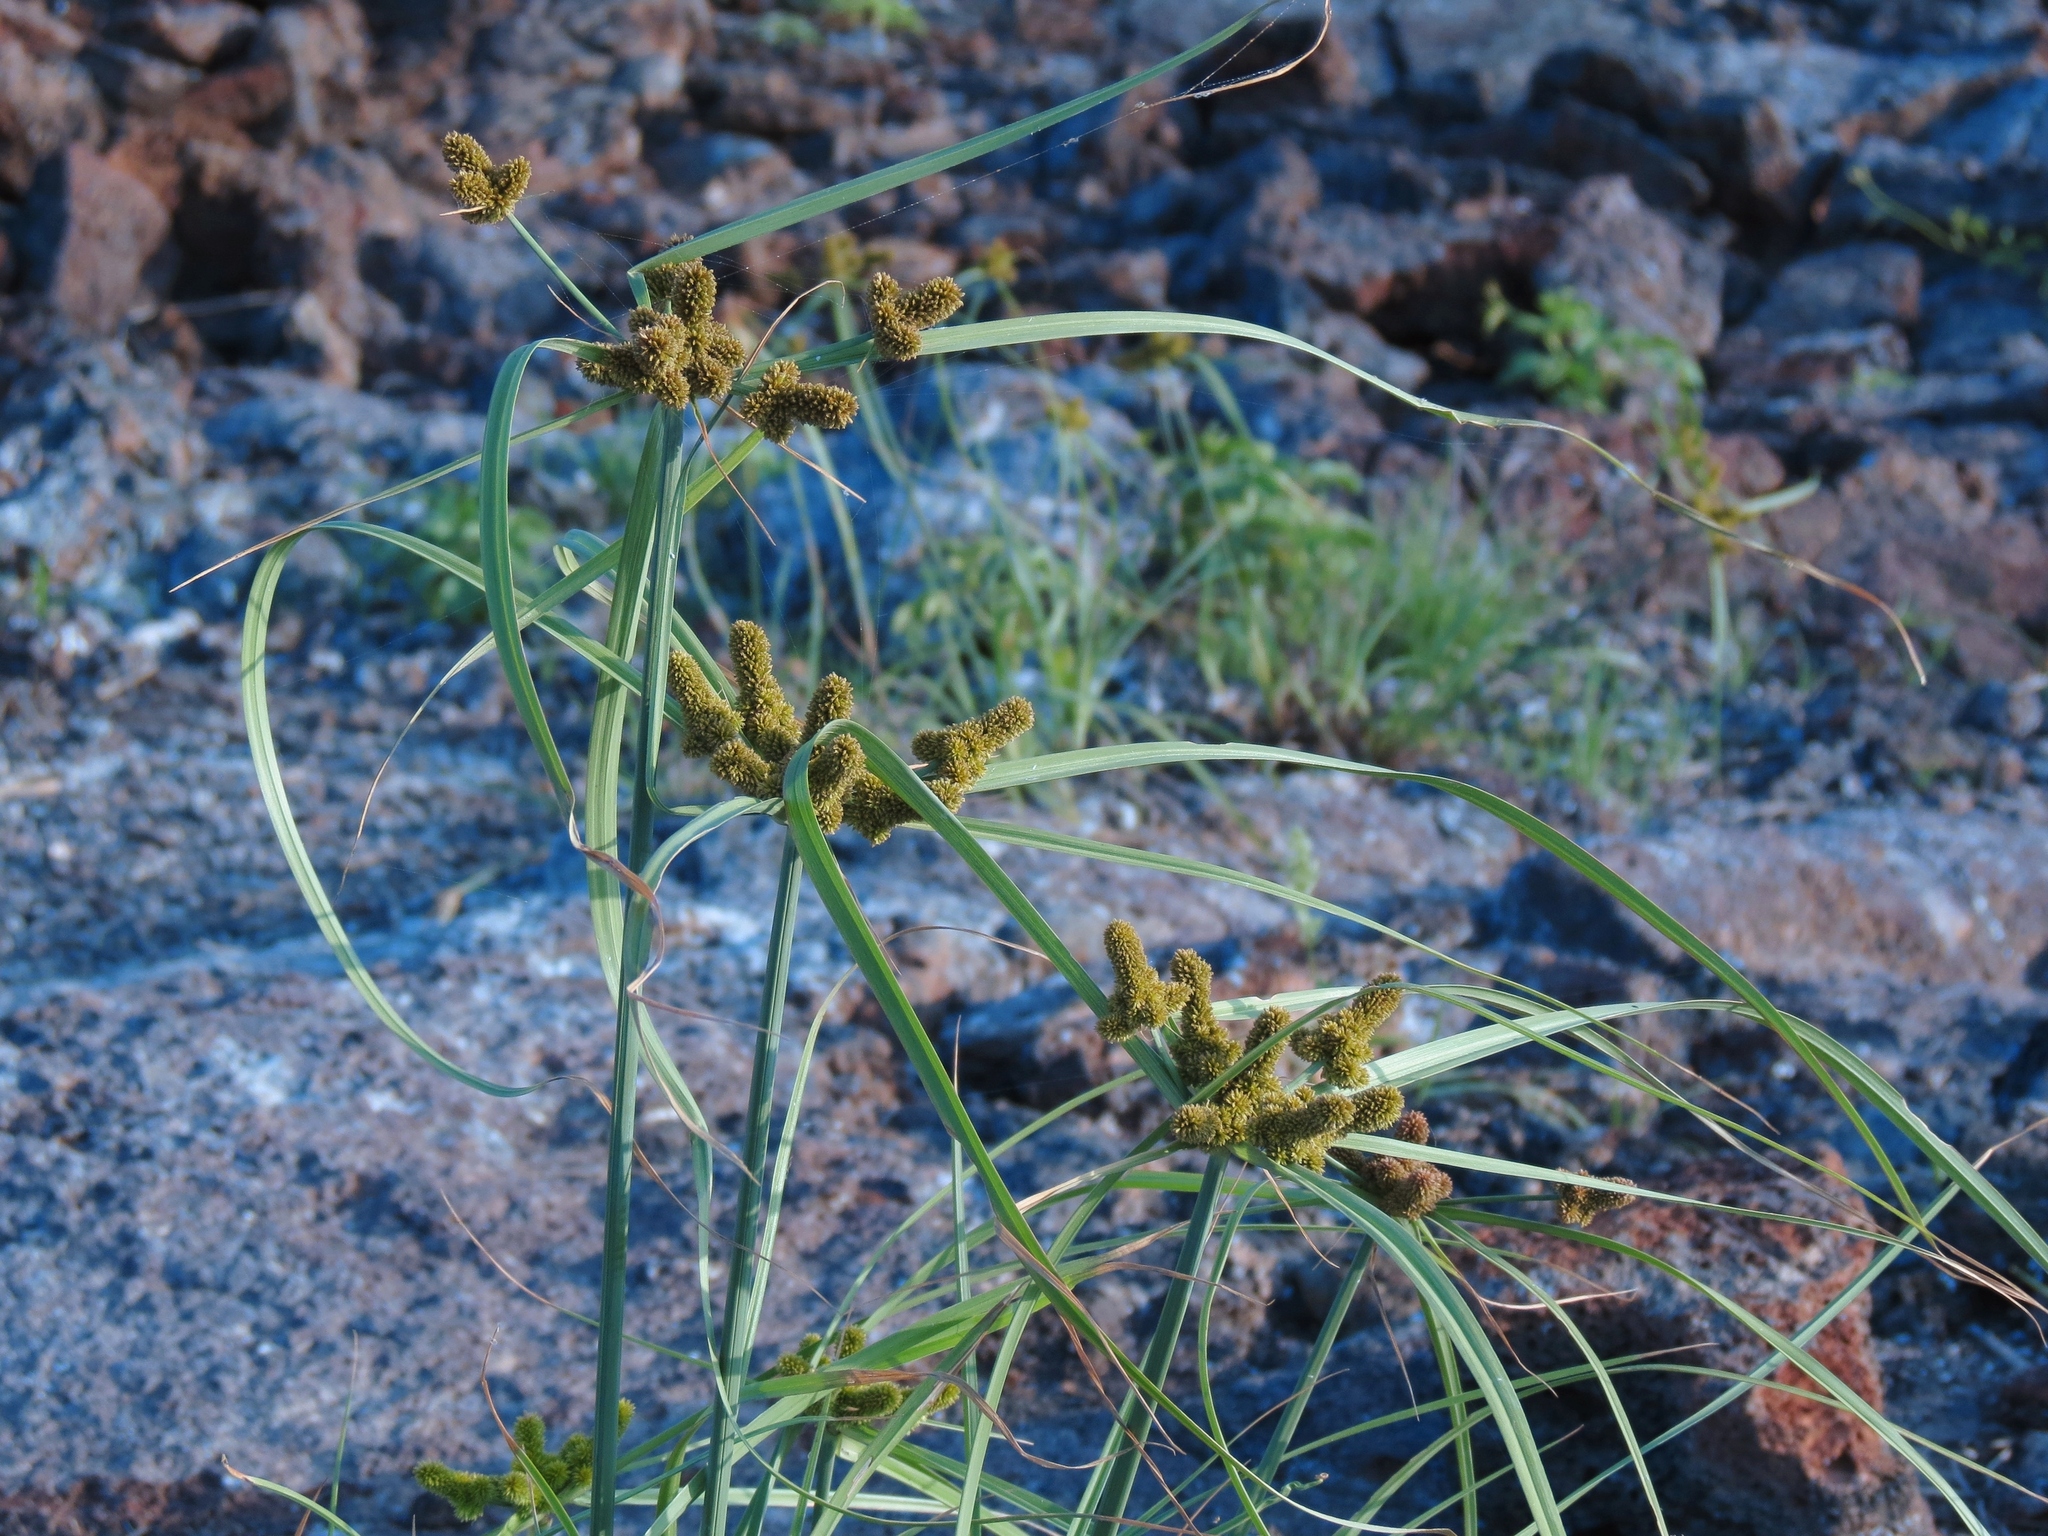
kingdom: Plantae
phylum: Tracheophyta
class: Liliopsida
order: Poales
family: Cyperaceae
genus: Cyperus
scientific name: Cyperus anderssonii
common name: Andersson's sedge
